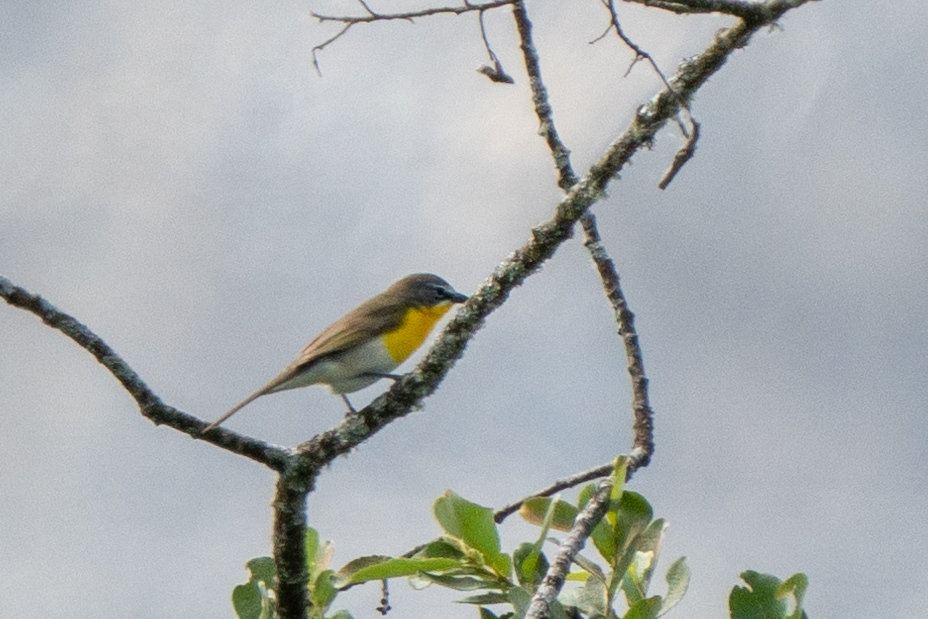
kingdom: Animalia
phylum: Chordata
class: Aves
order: Passeriformes
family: Parulidae
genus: Icteria
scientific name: Icteria virens
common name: Yellow-breasted chat
